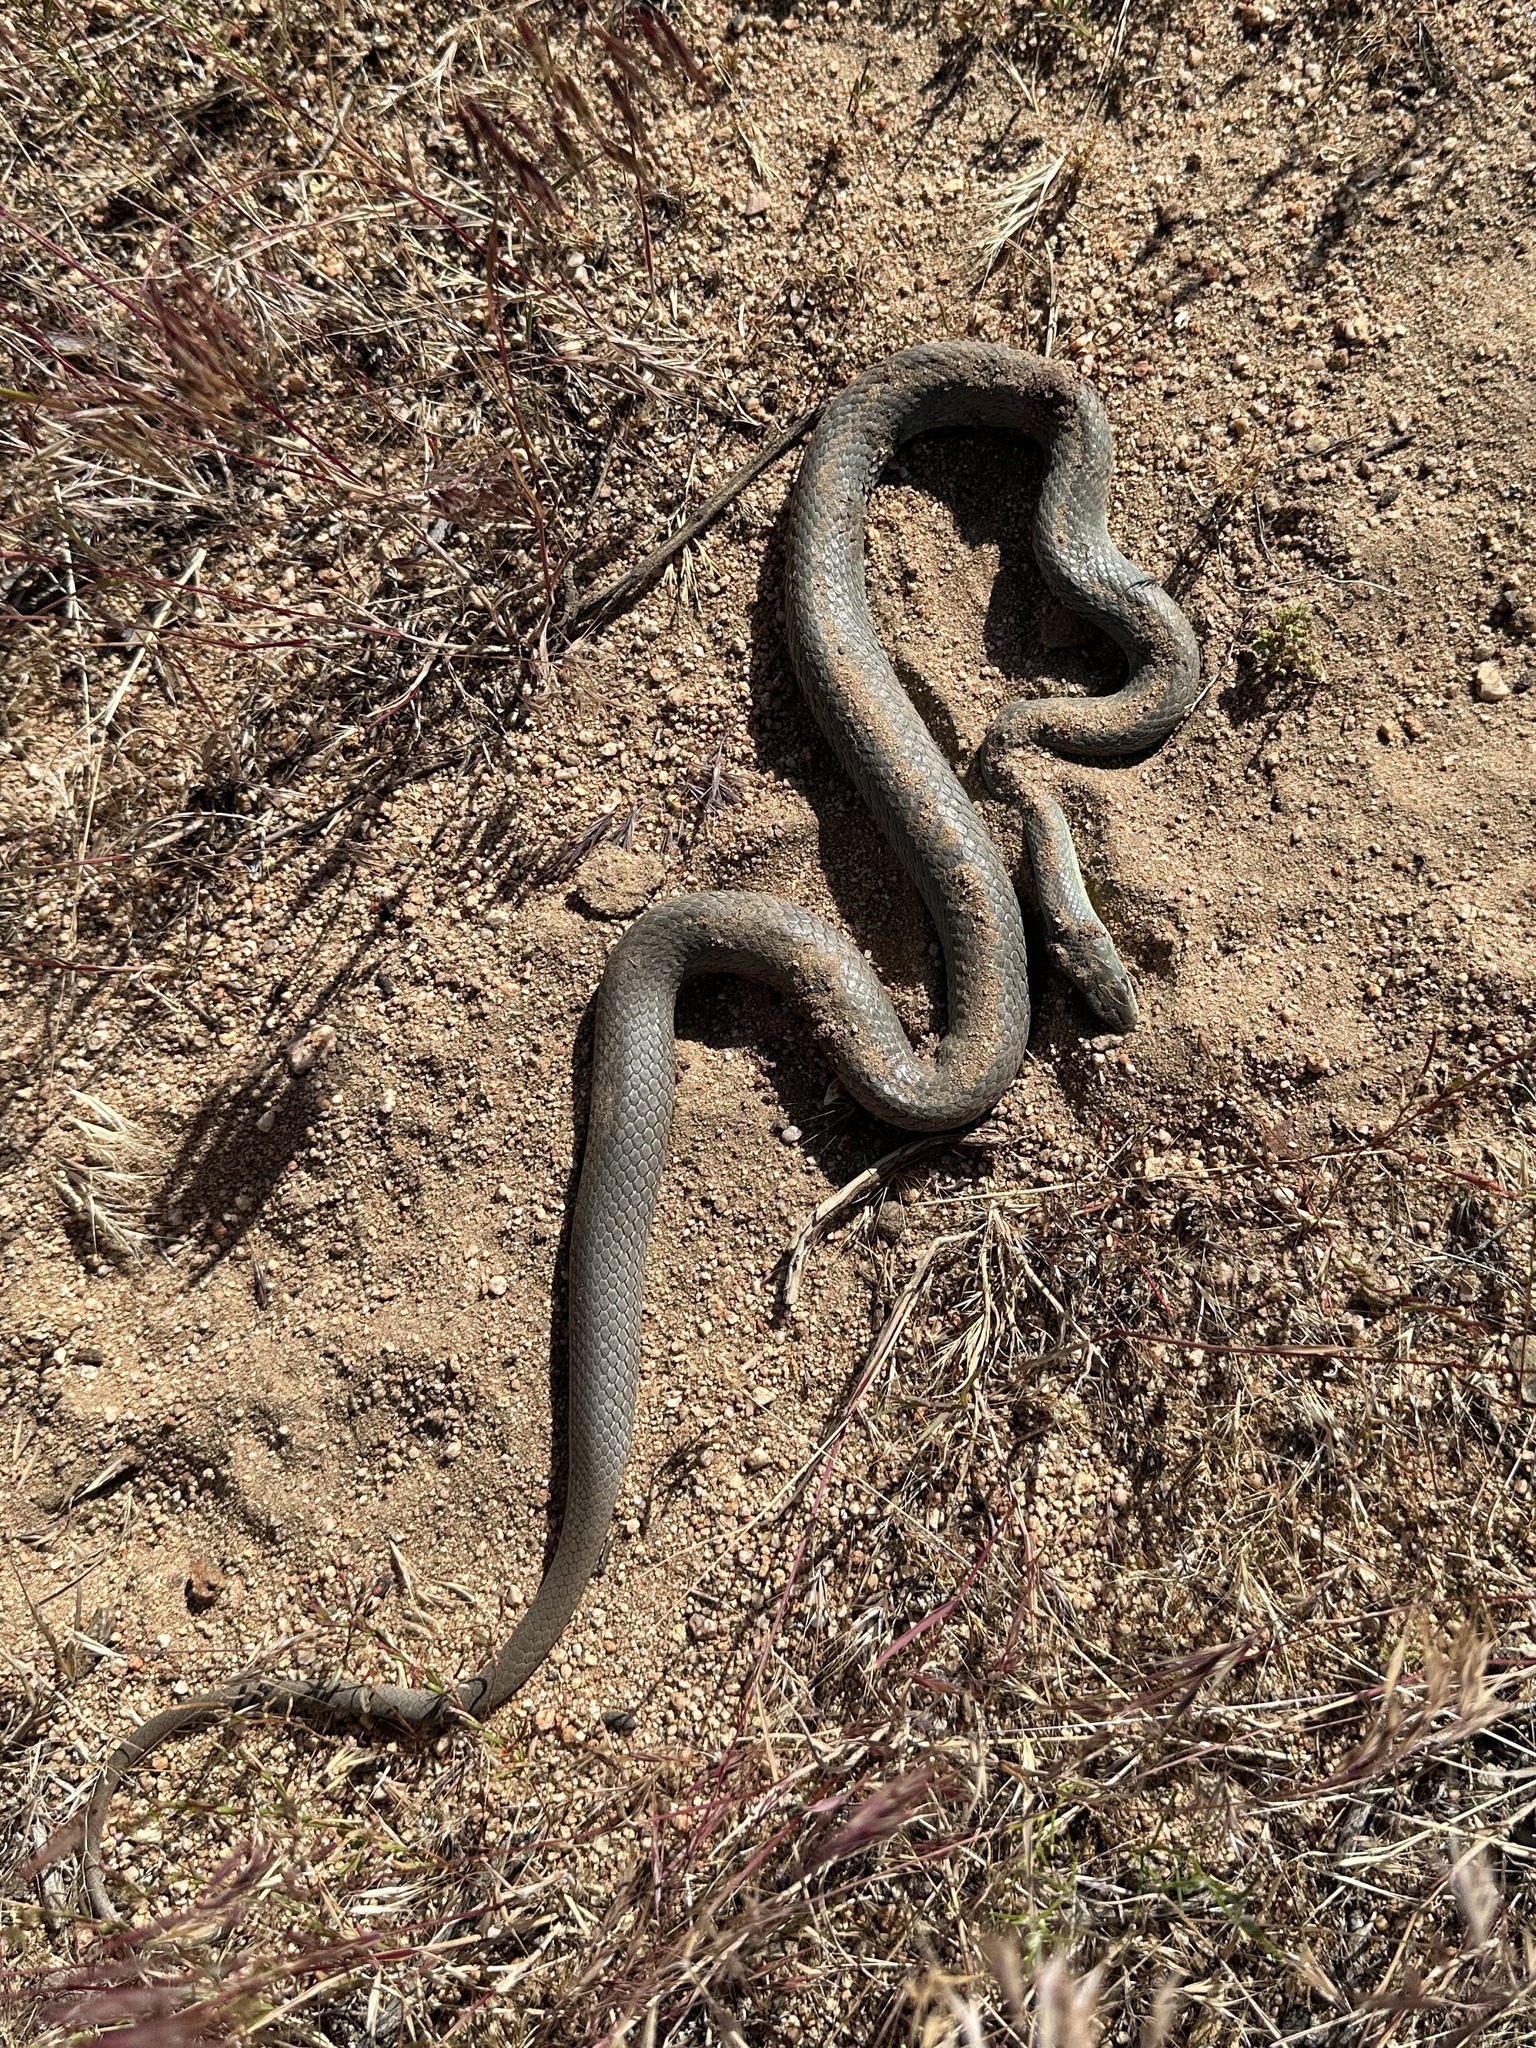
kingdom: Animalia
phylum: Chordata
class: Squamata
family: Colubridae
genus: Coluber
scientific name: Coluber constrictor
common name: Eastern racer
